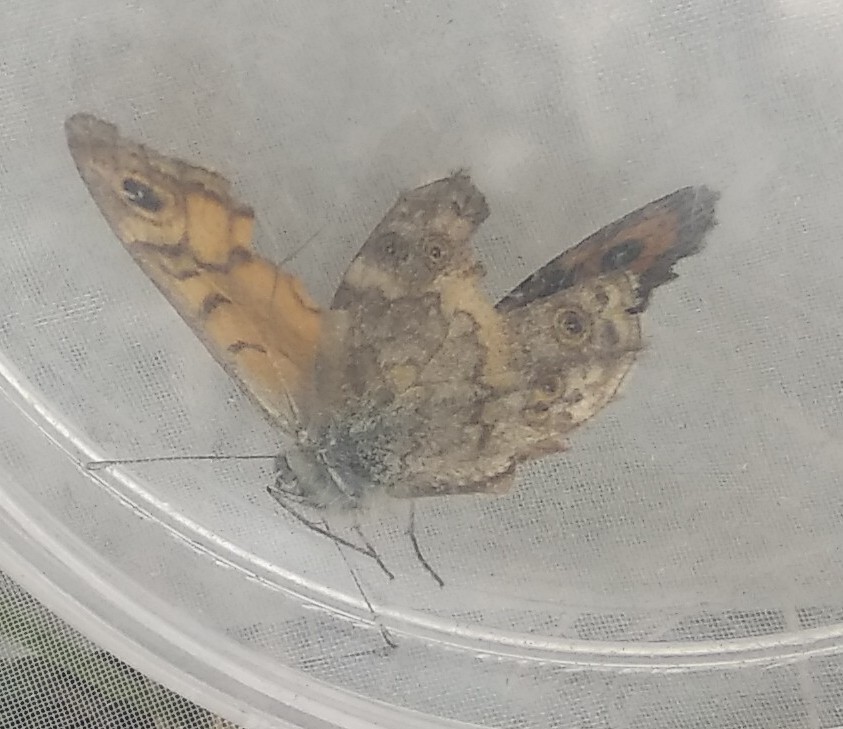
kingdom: Animalia
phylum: Arthropoda
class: Insecta
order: Lepidoptera
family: Nymphalidae
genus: Pararge
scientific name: Pararge Lasiommata megera
